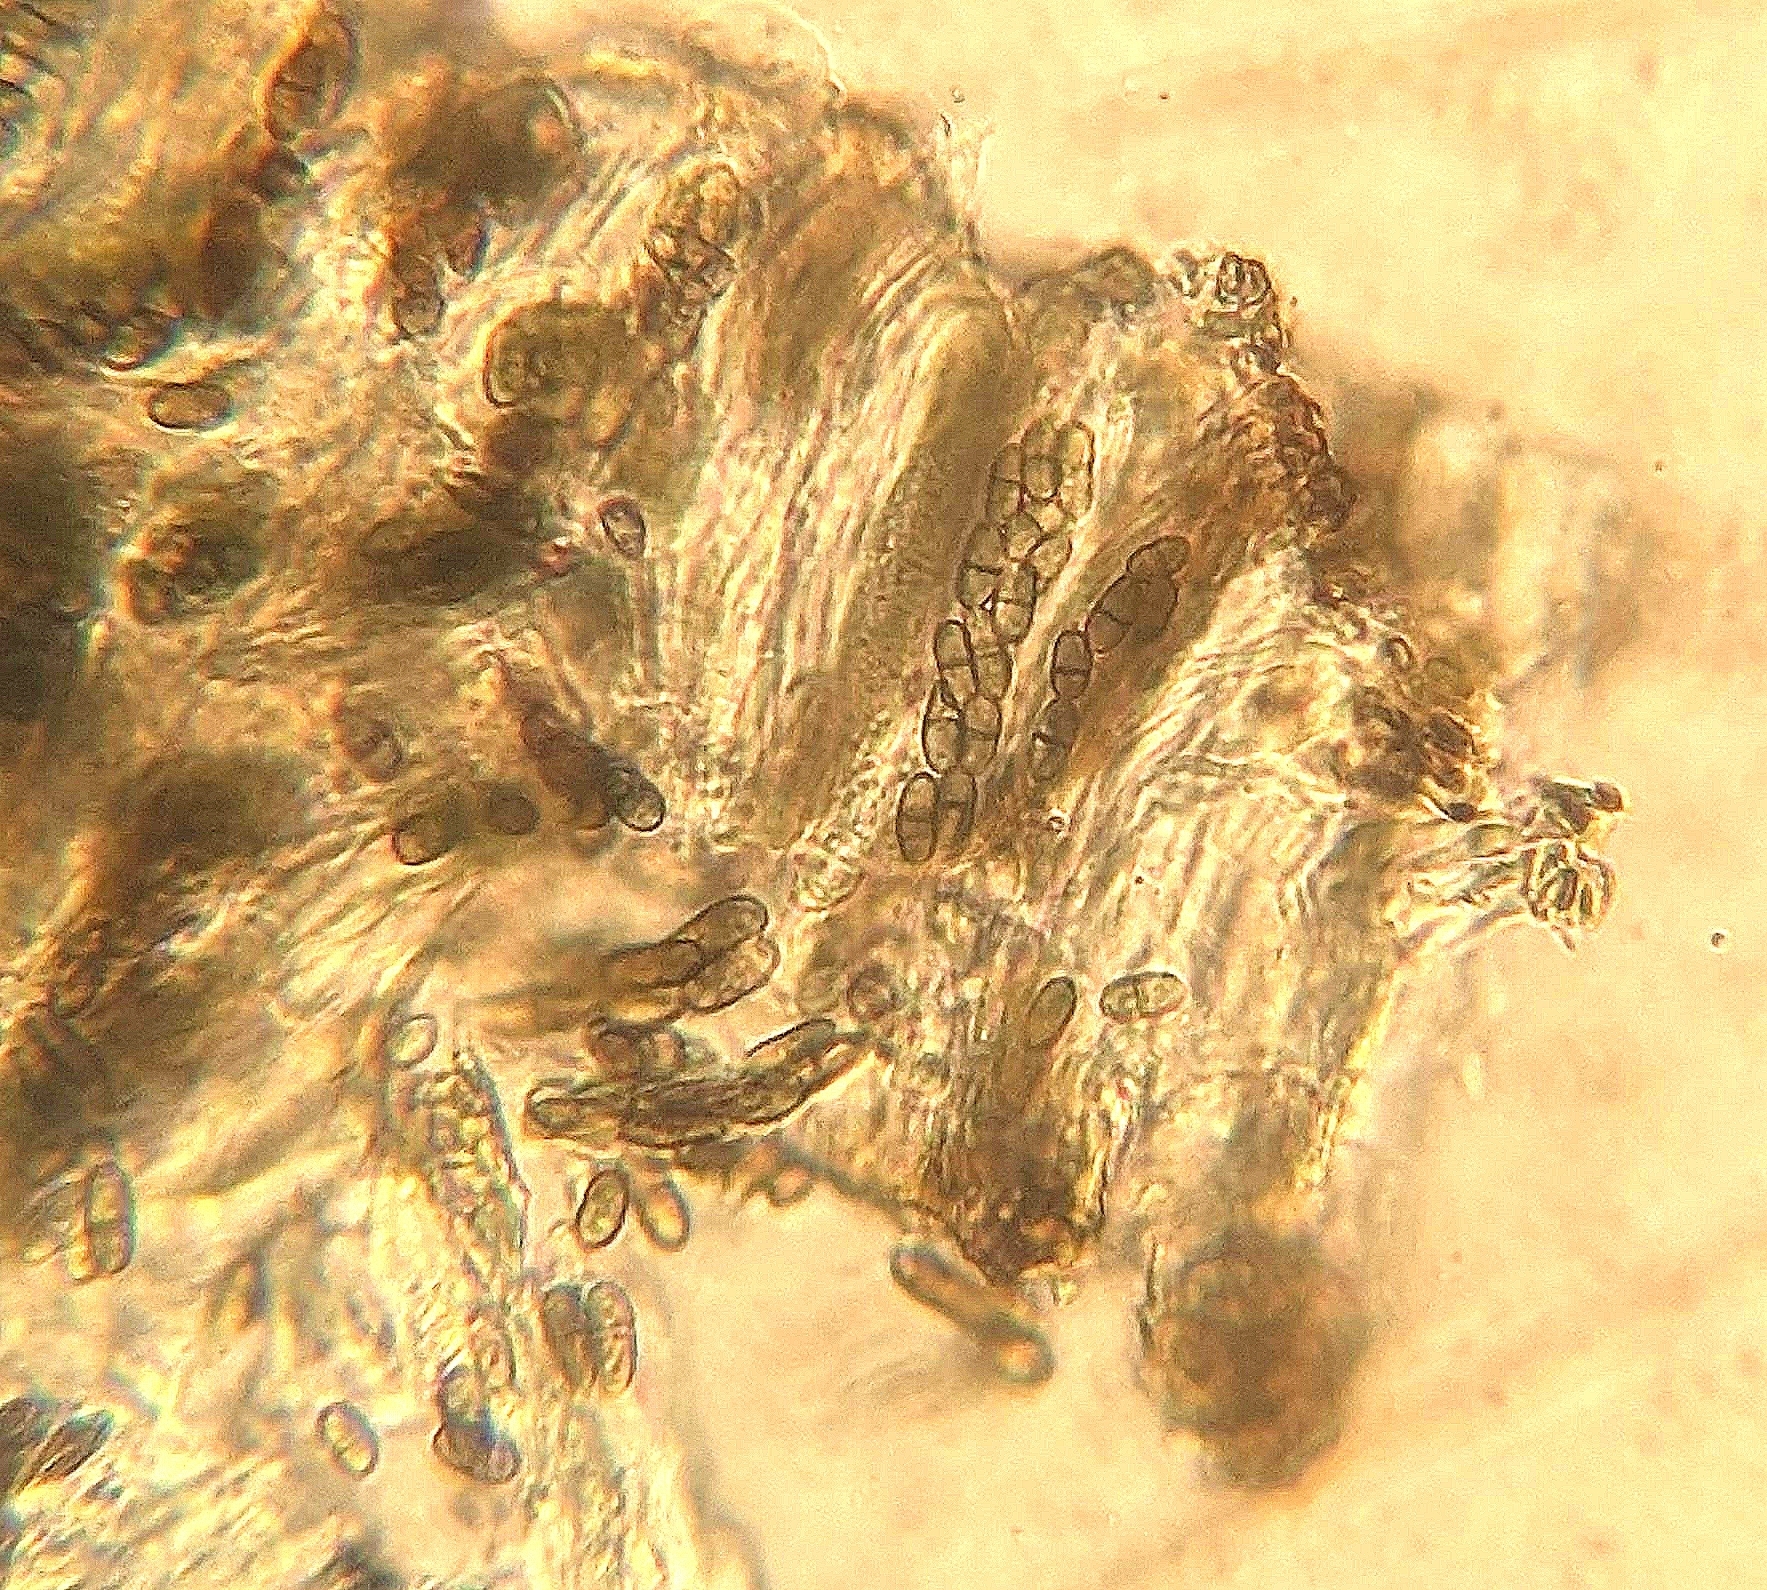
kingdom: Fungi
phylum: Ascomycota
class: Lecanoromycetes
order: Caliciales
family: Physciaceae
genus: Amandinea
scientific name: Amandinea polyspora
